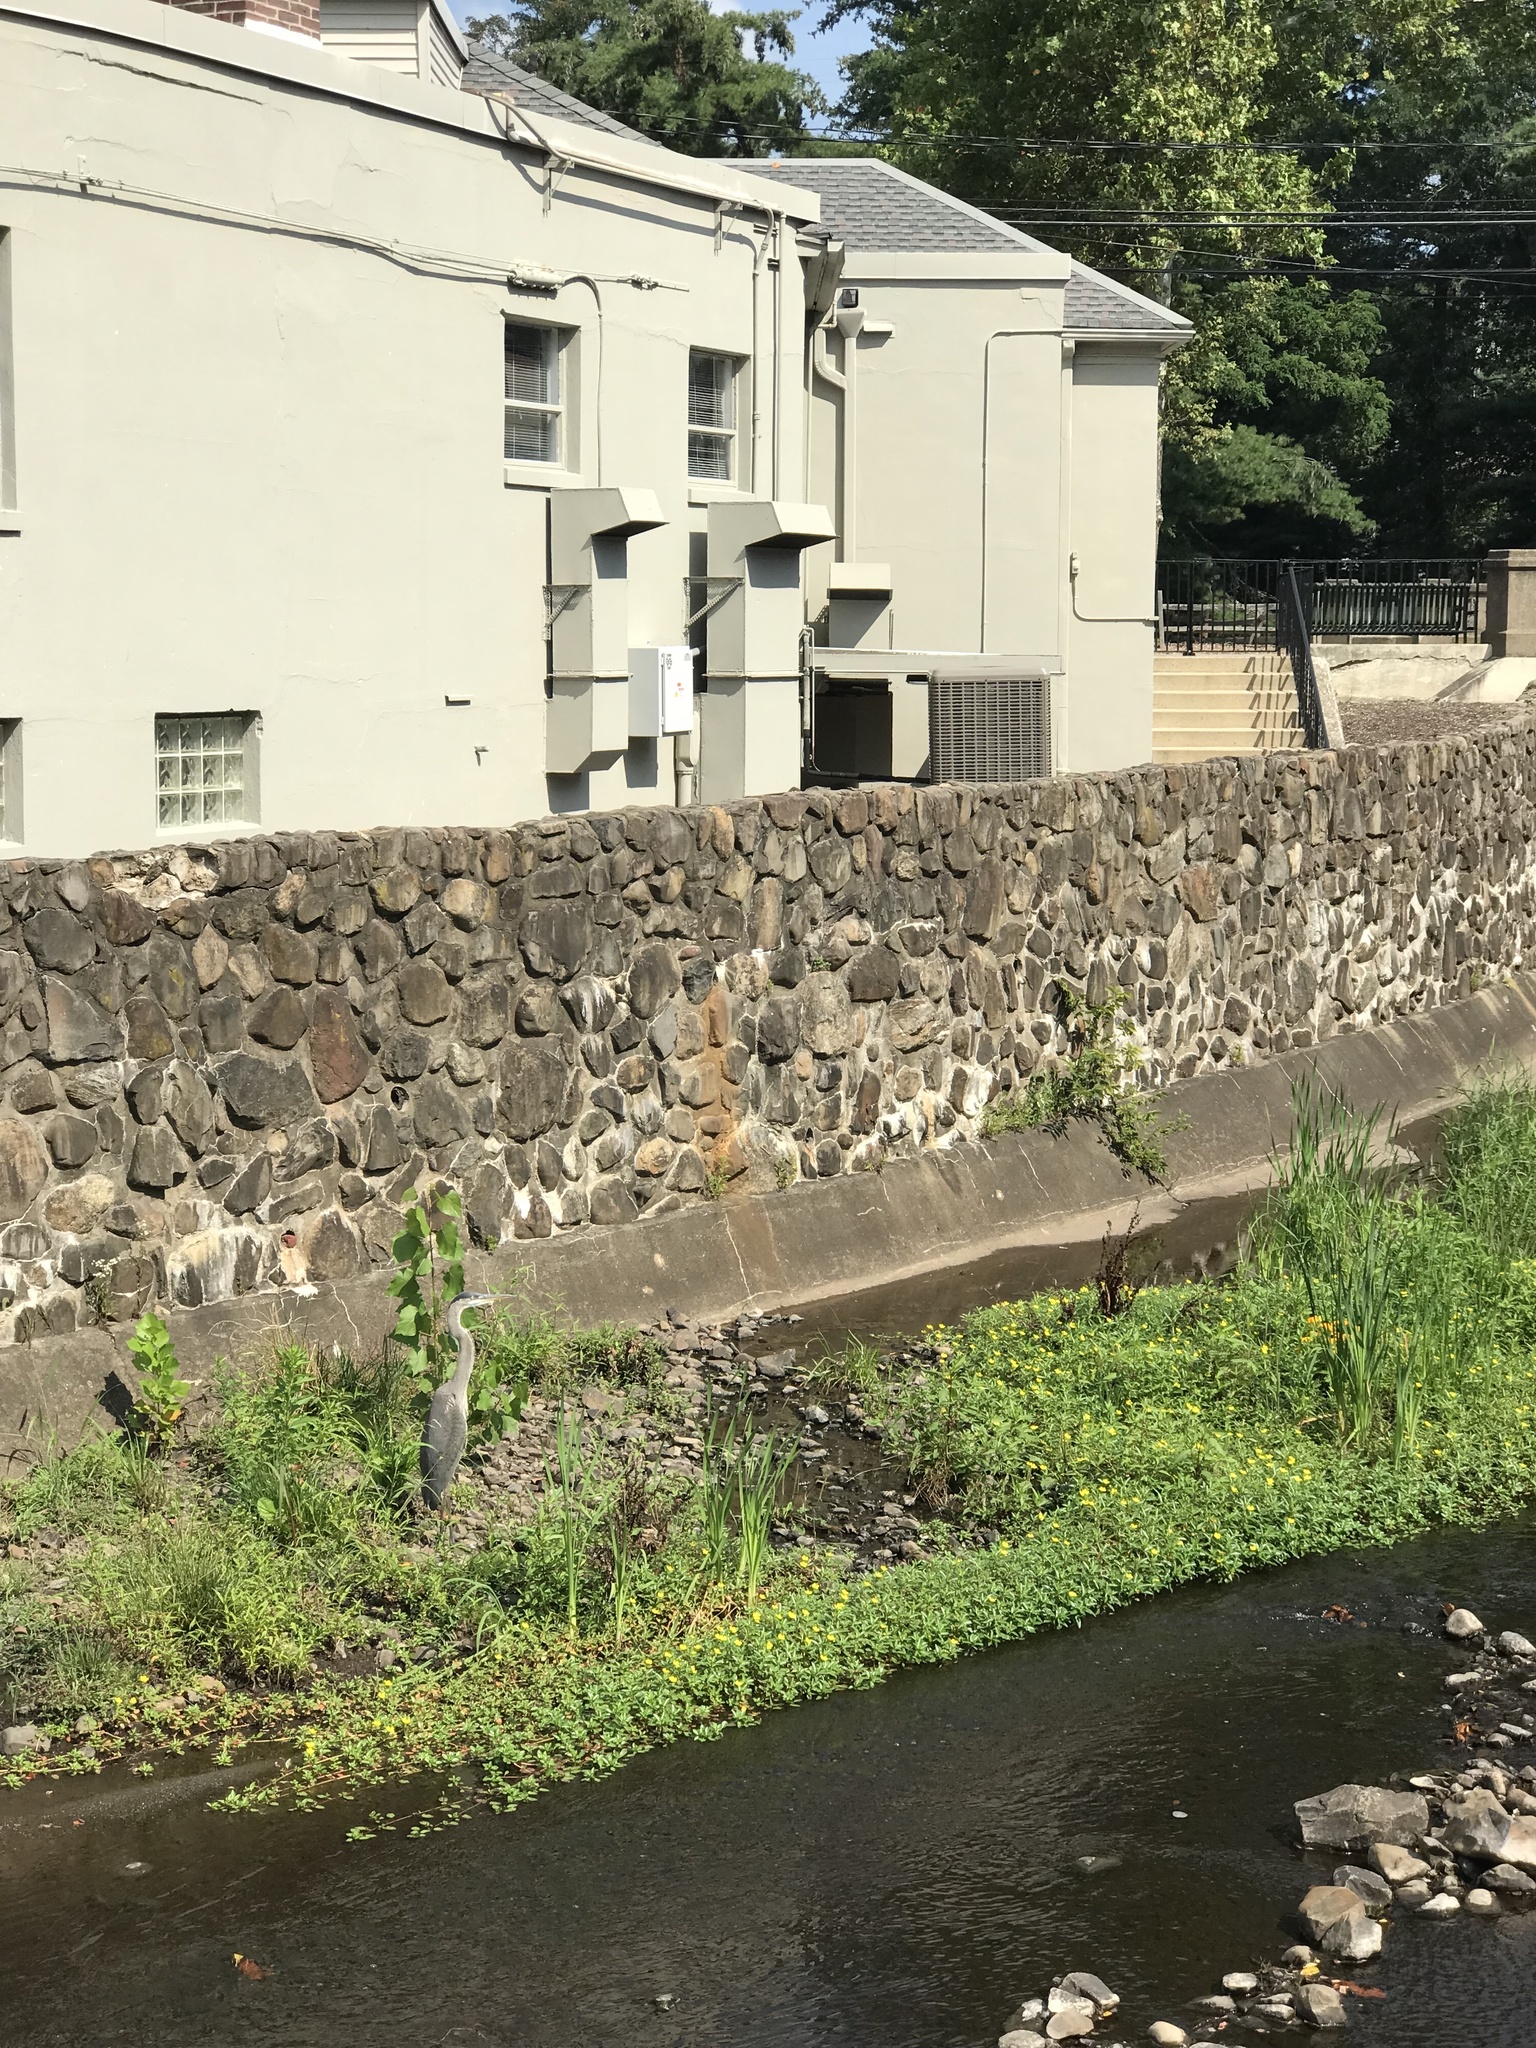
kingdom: Animalia
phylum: Chordata
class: Aves
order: Pelecaniformes
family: Ardeidae
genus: Ardea
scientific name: Ardea herodias
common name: Great blue heron
